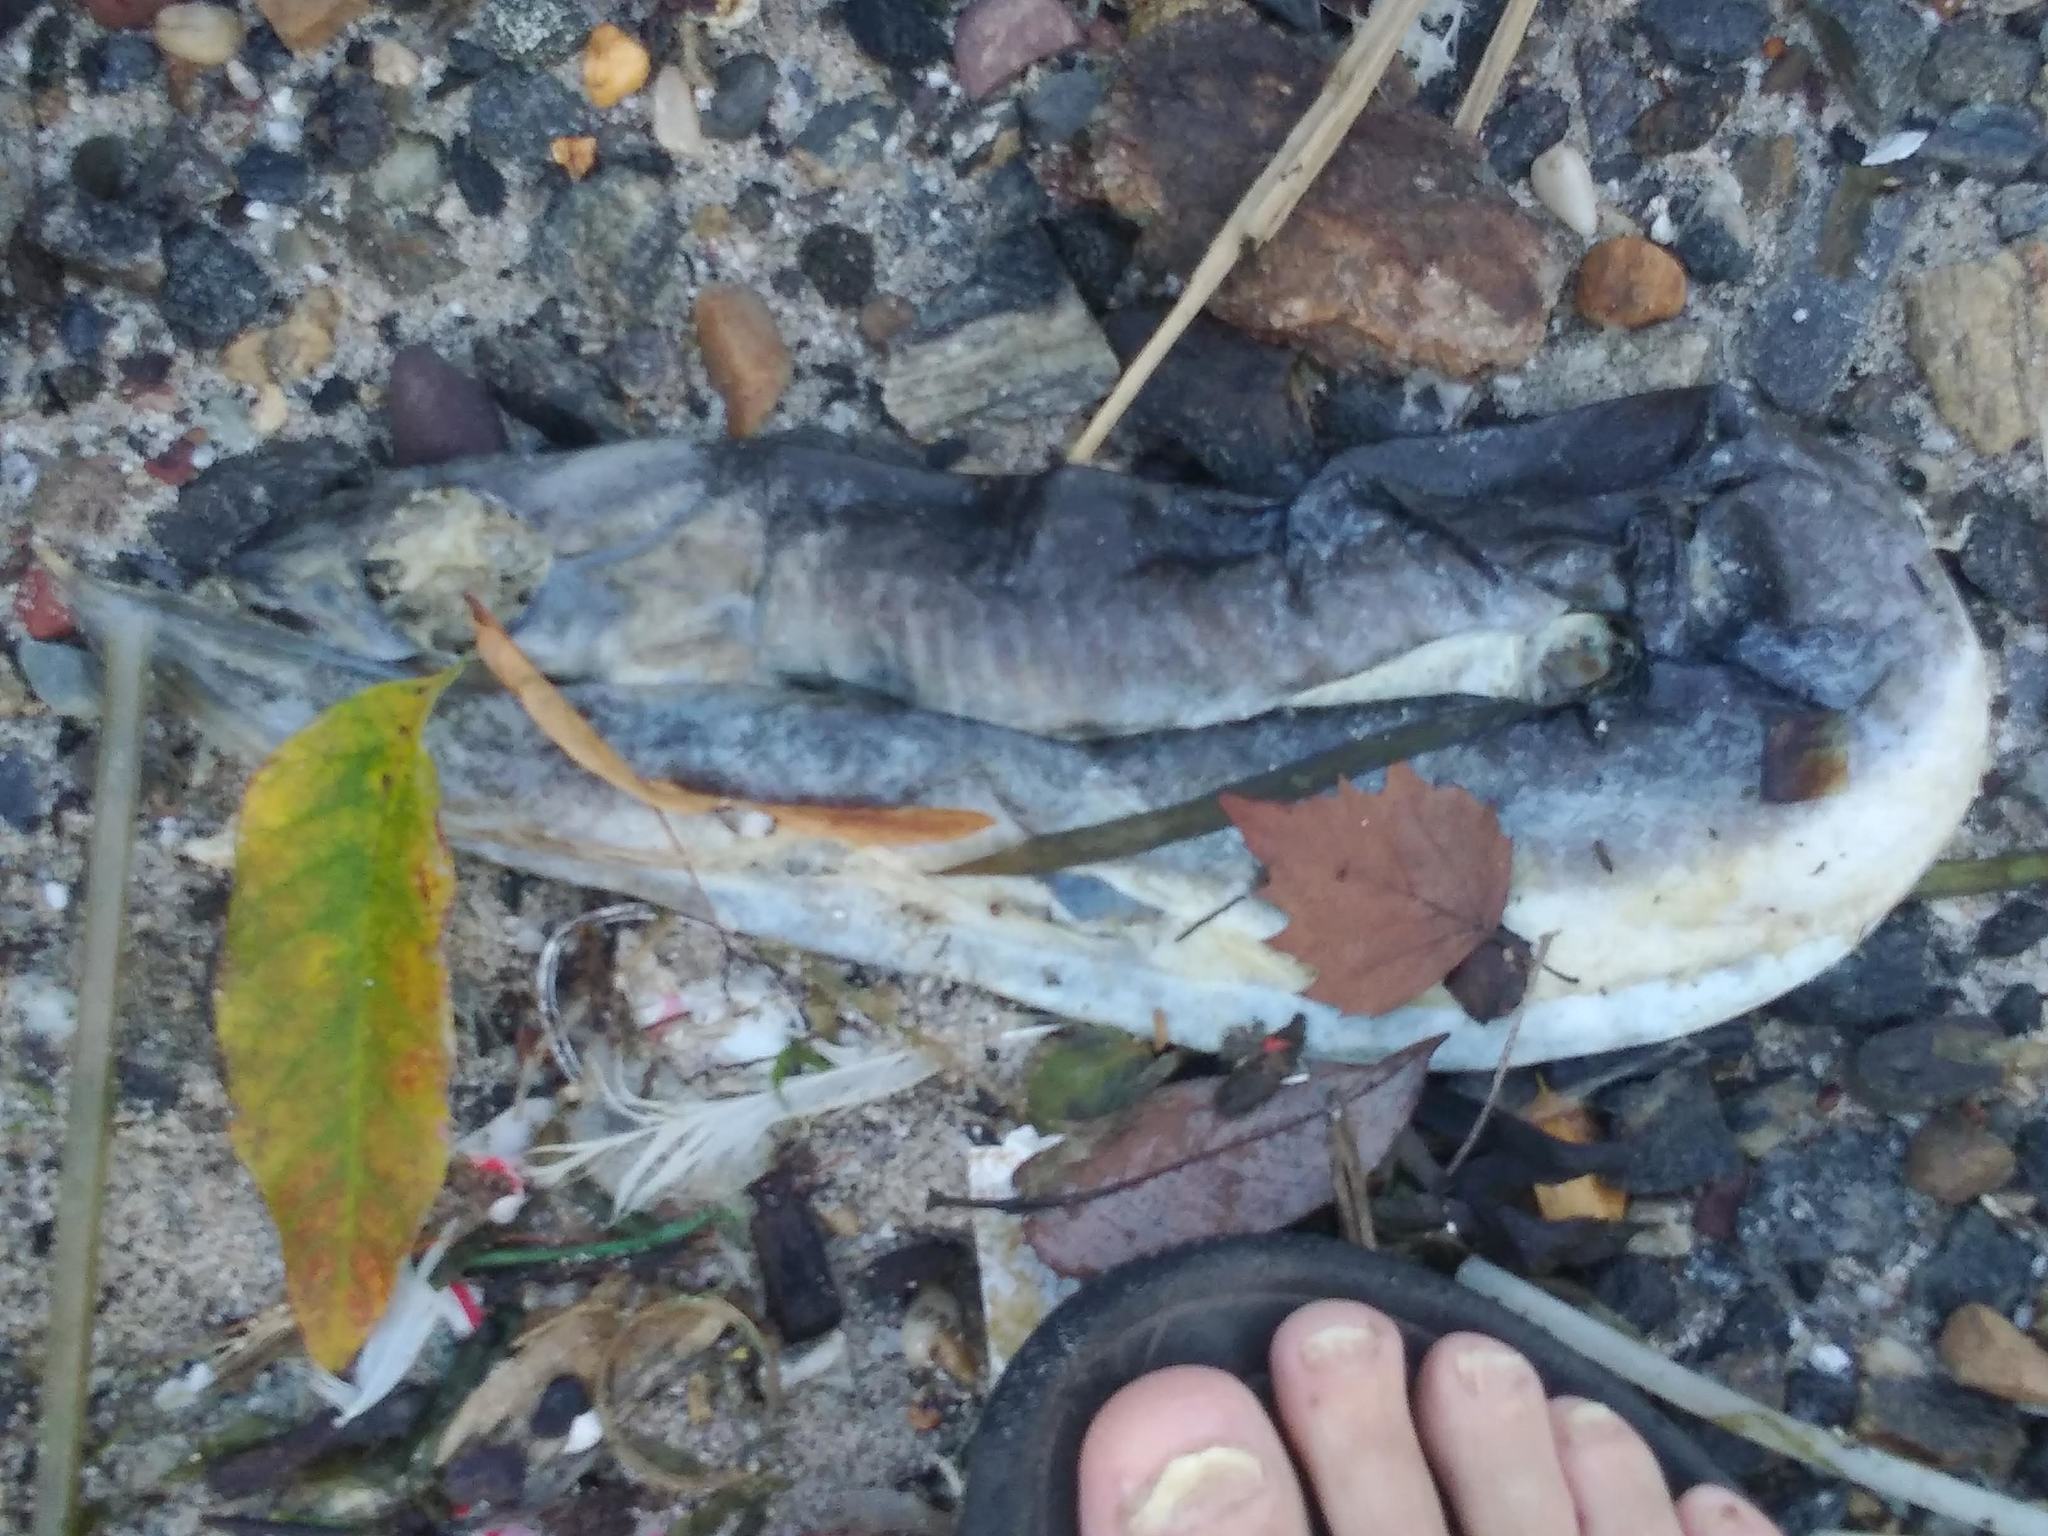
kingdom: Animalia
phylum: Chordata
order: Anguilliformes
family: Anguillidae
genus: Anguilla
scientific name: Anguilla rostrata
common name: American eel
